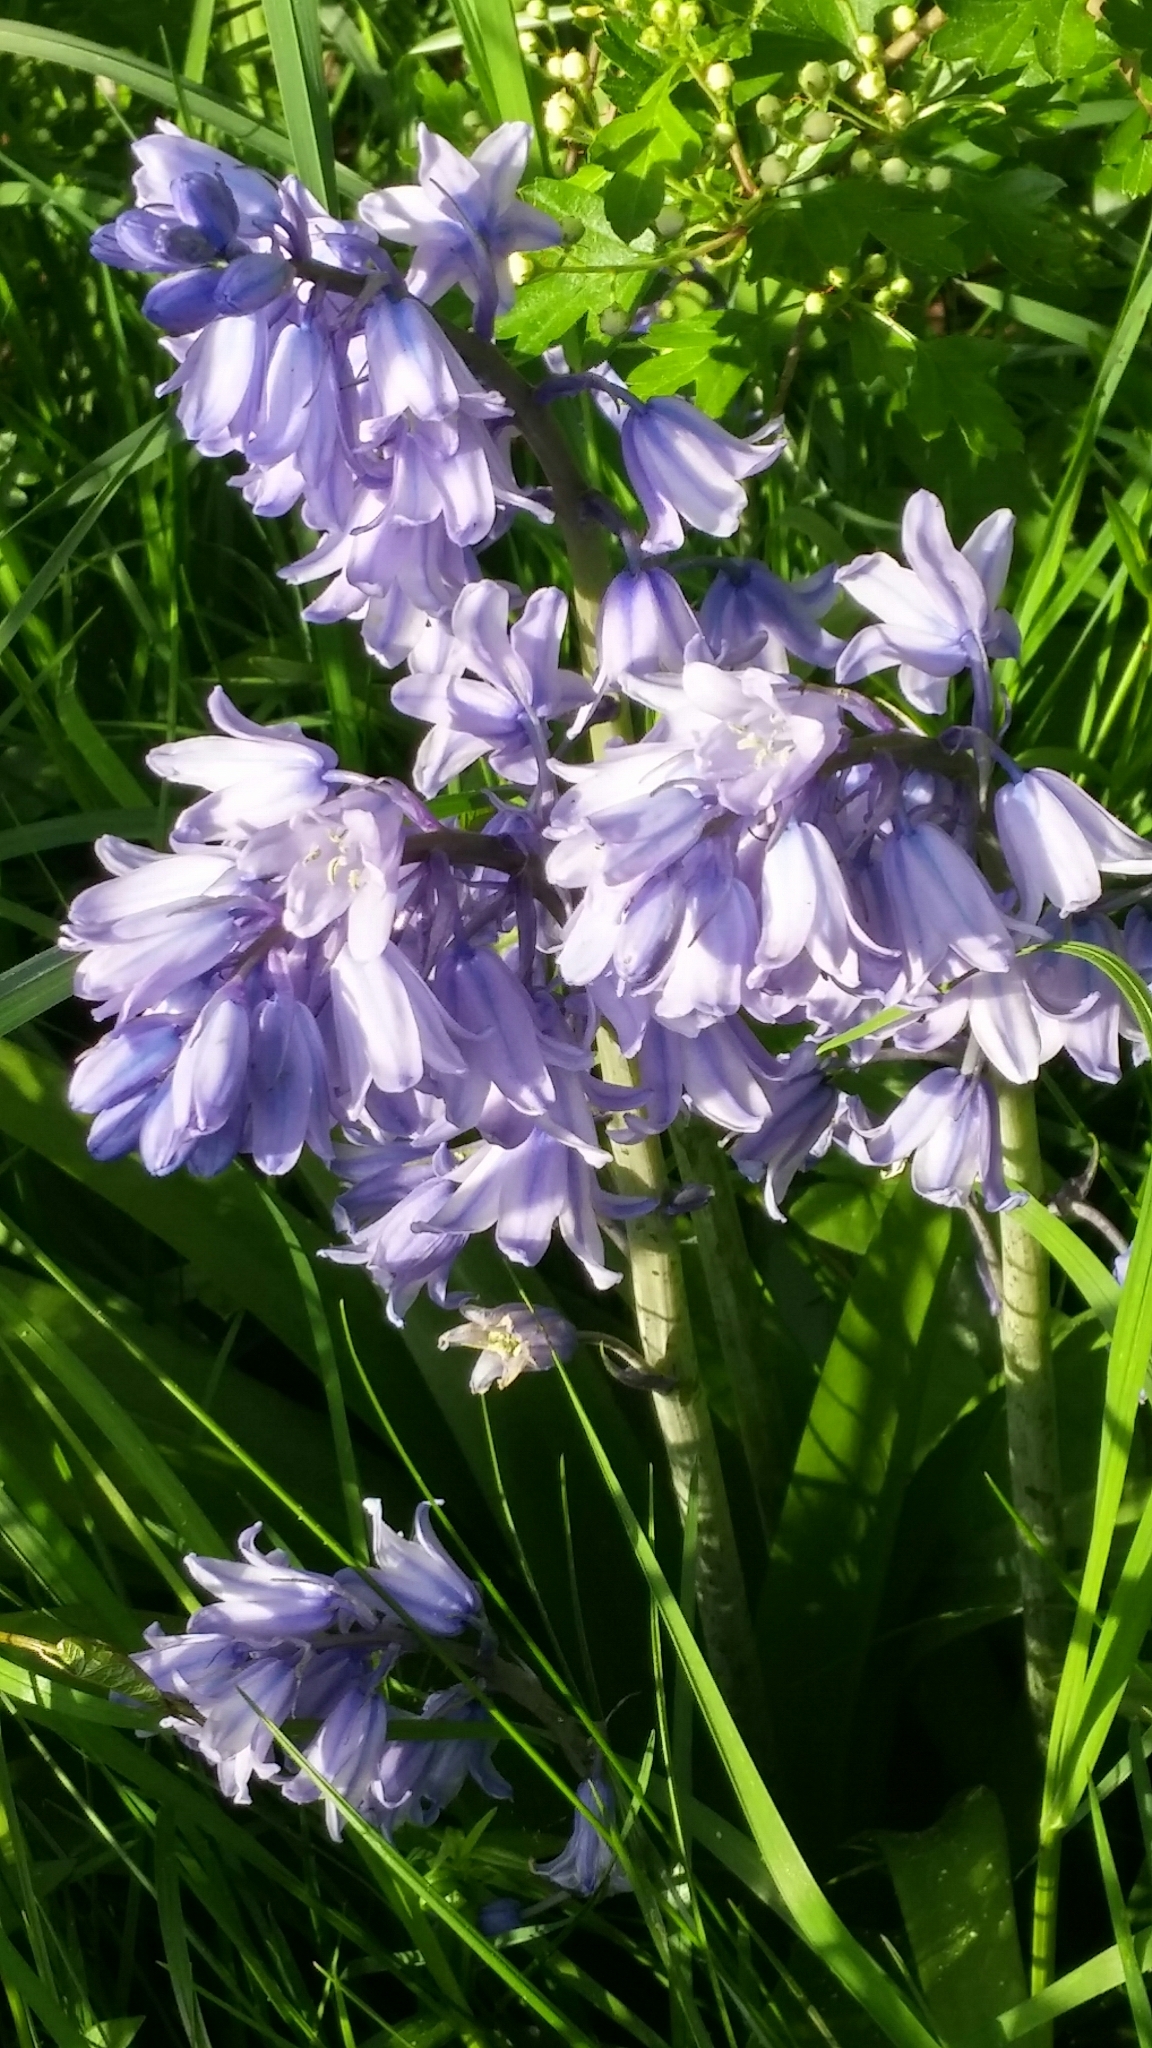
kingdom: Plantae
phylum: Tracheophyta
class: Liliopsida
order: Asparagales
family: Asparagaceae
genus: Hyacinthoides
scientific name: Hyacinthoides hispanica
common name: Spanish bluebell
